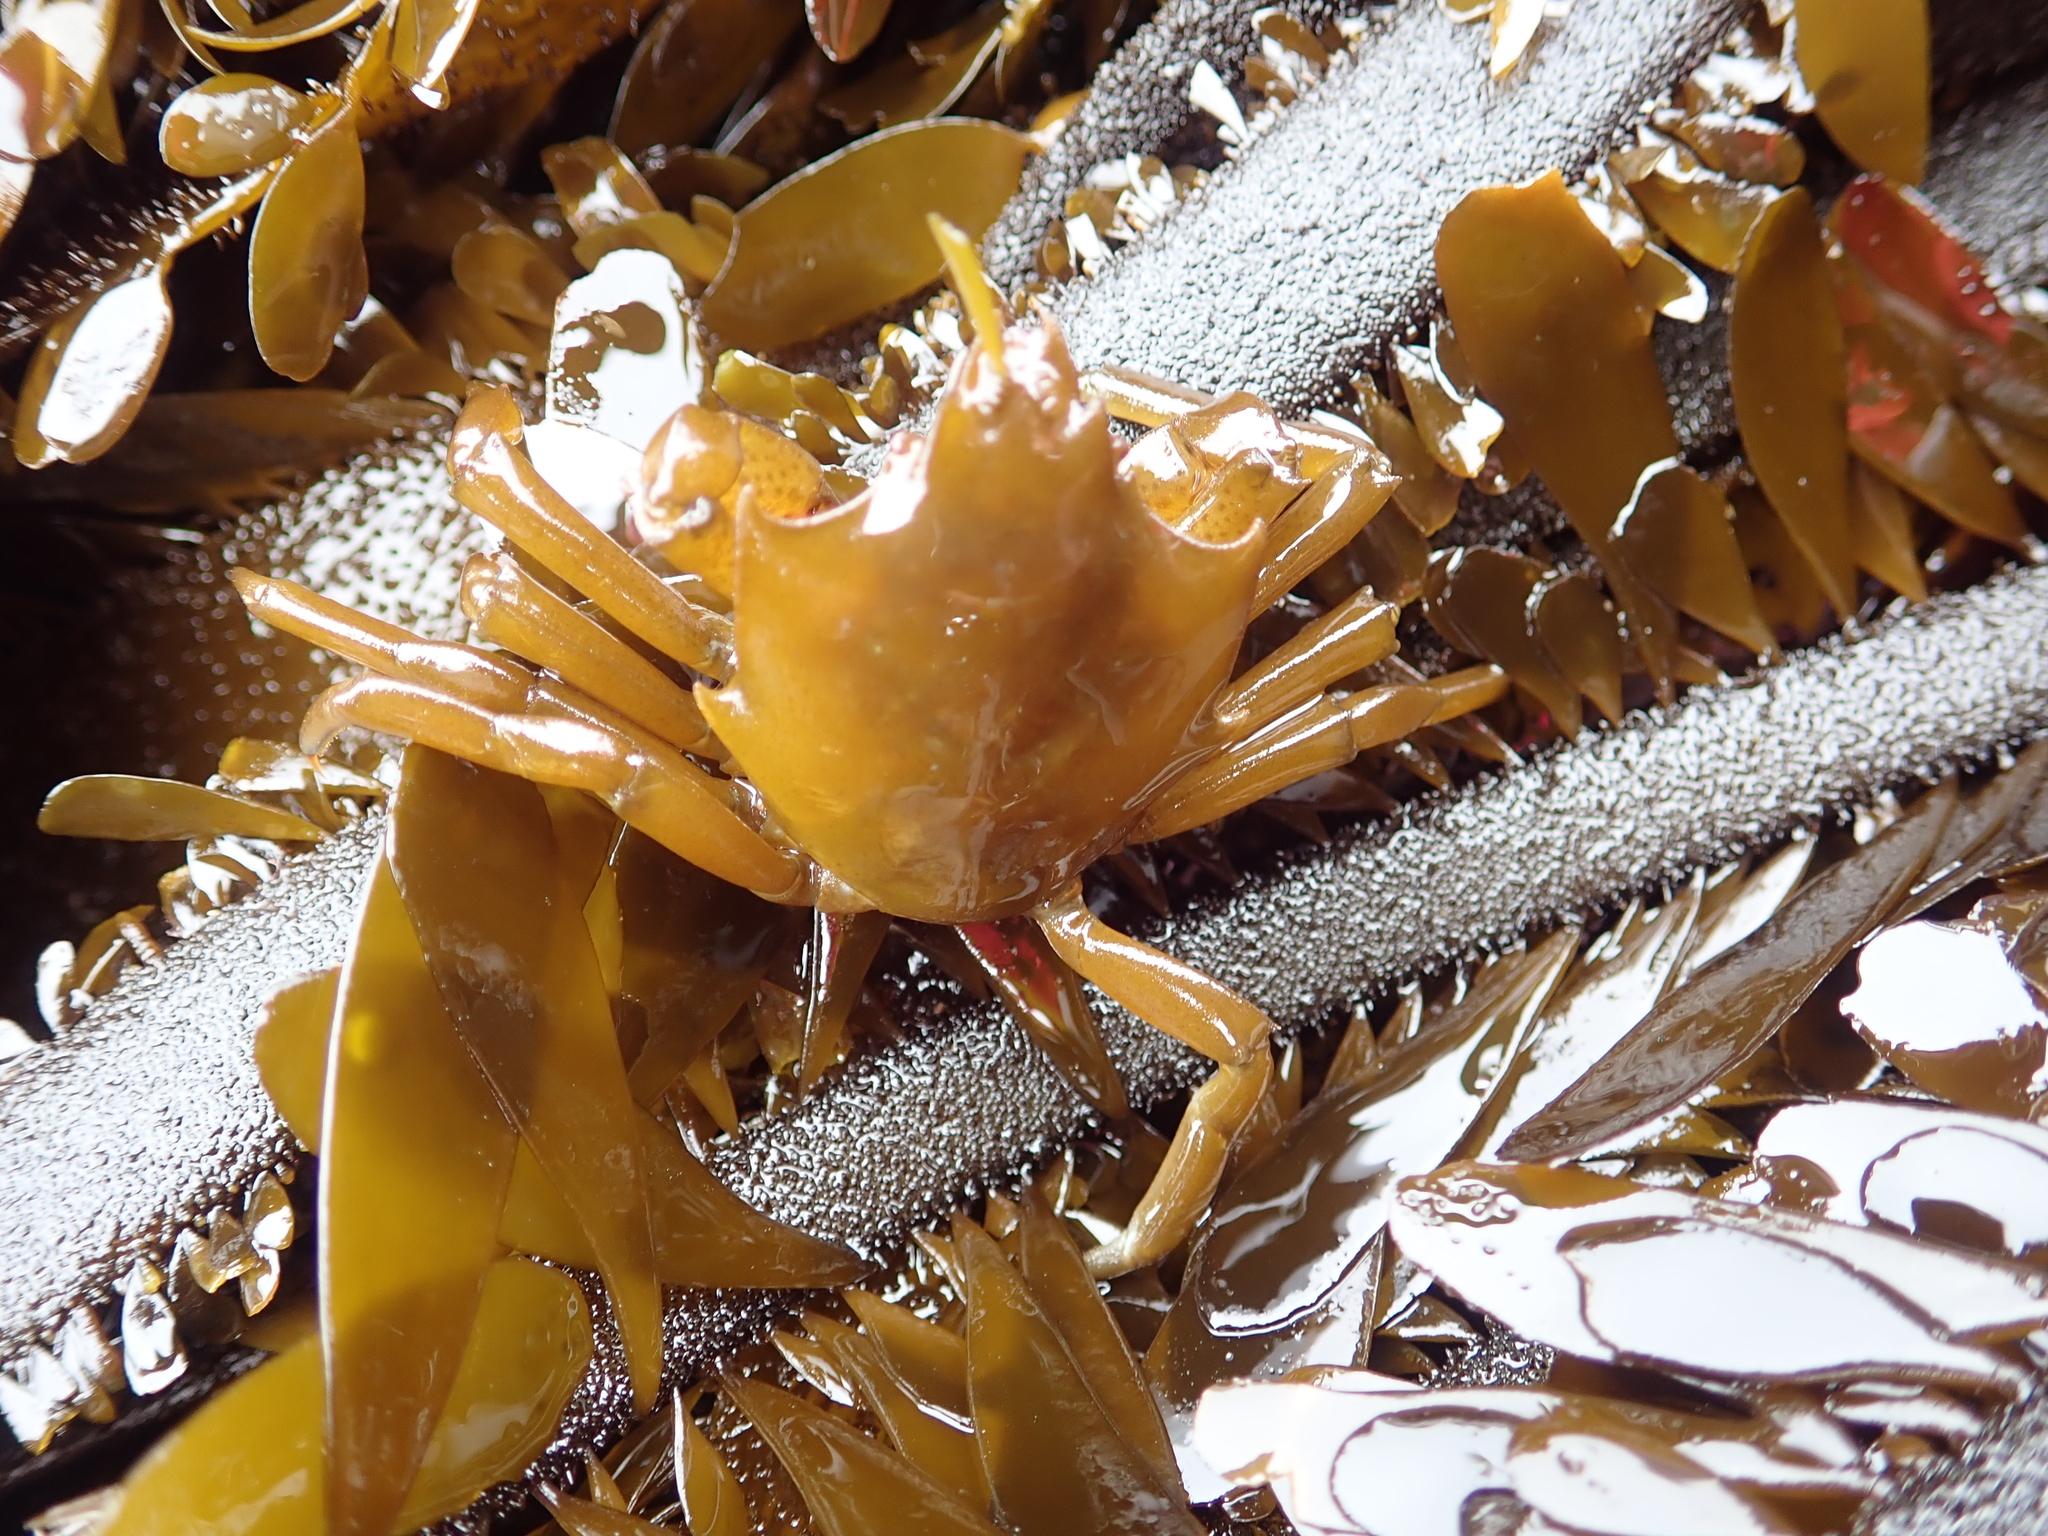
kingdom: Animalia
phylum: Arthropoda
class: Malacostraca
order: Decapoda
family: Epialtidae
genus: Pugettia
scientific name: Pugettia producta
